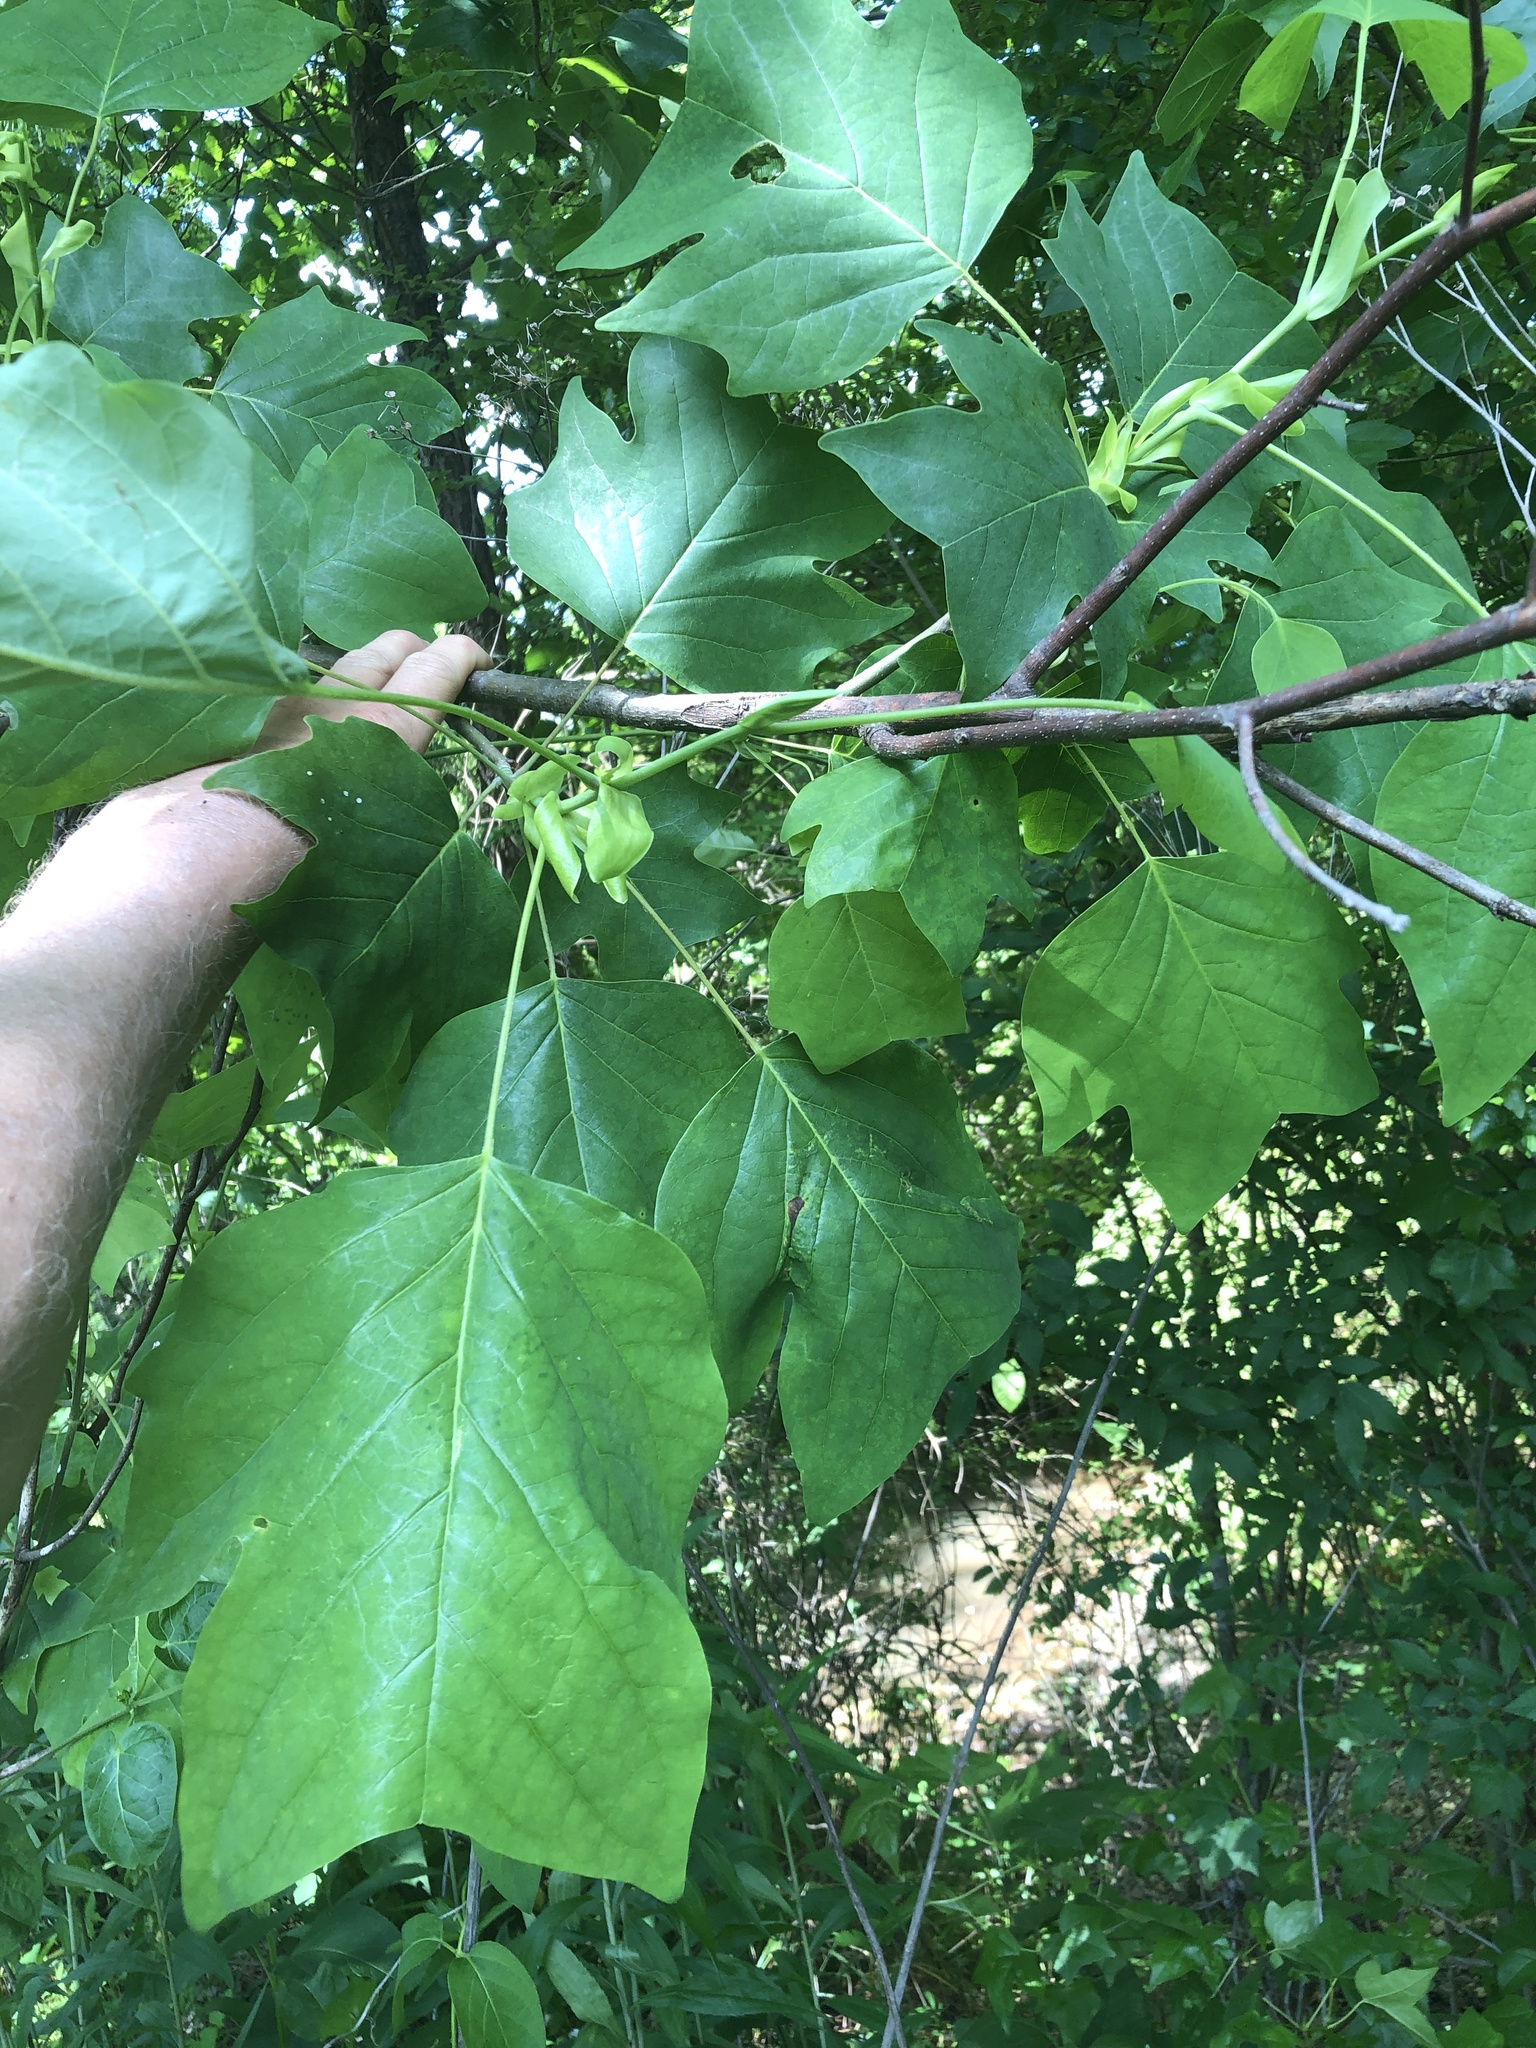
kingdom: Plantae
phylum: Tracheophyta
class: Magnoliopsida
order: Magnoliales
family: Magnoliaceae
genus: Liriodendron
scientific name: Liriodendron tulipifera
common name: Tulip tree
